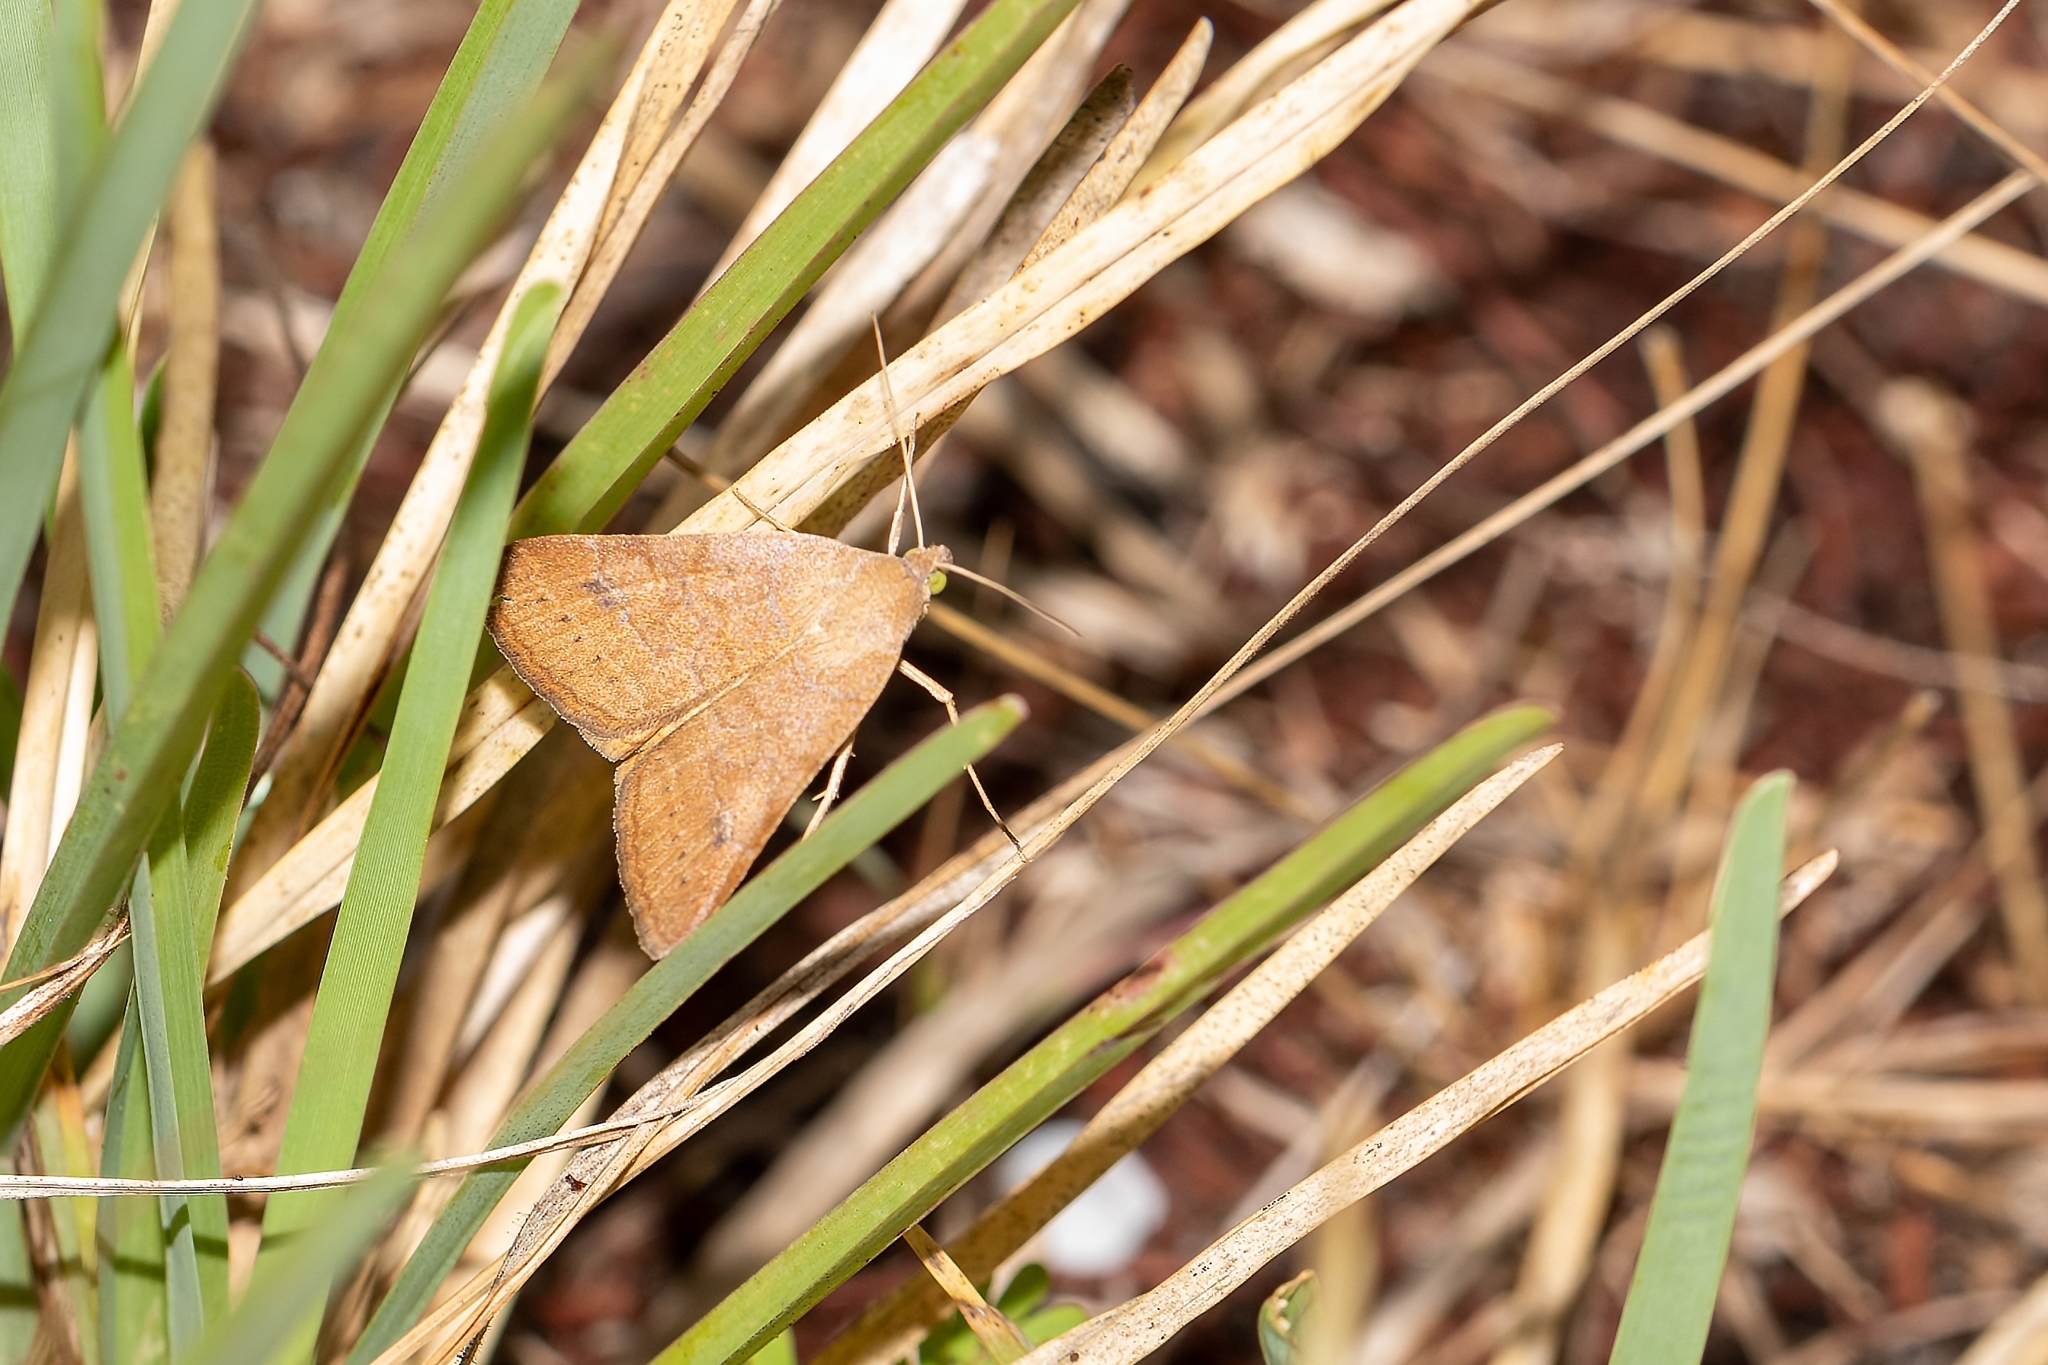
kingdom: Animalia
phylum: Arthropoda
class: Insecta
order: Lepidoptera
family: Erebidae
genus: Caenurgia
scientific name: Caenurgia chloropha
